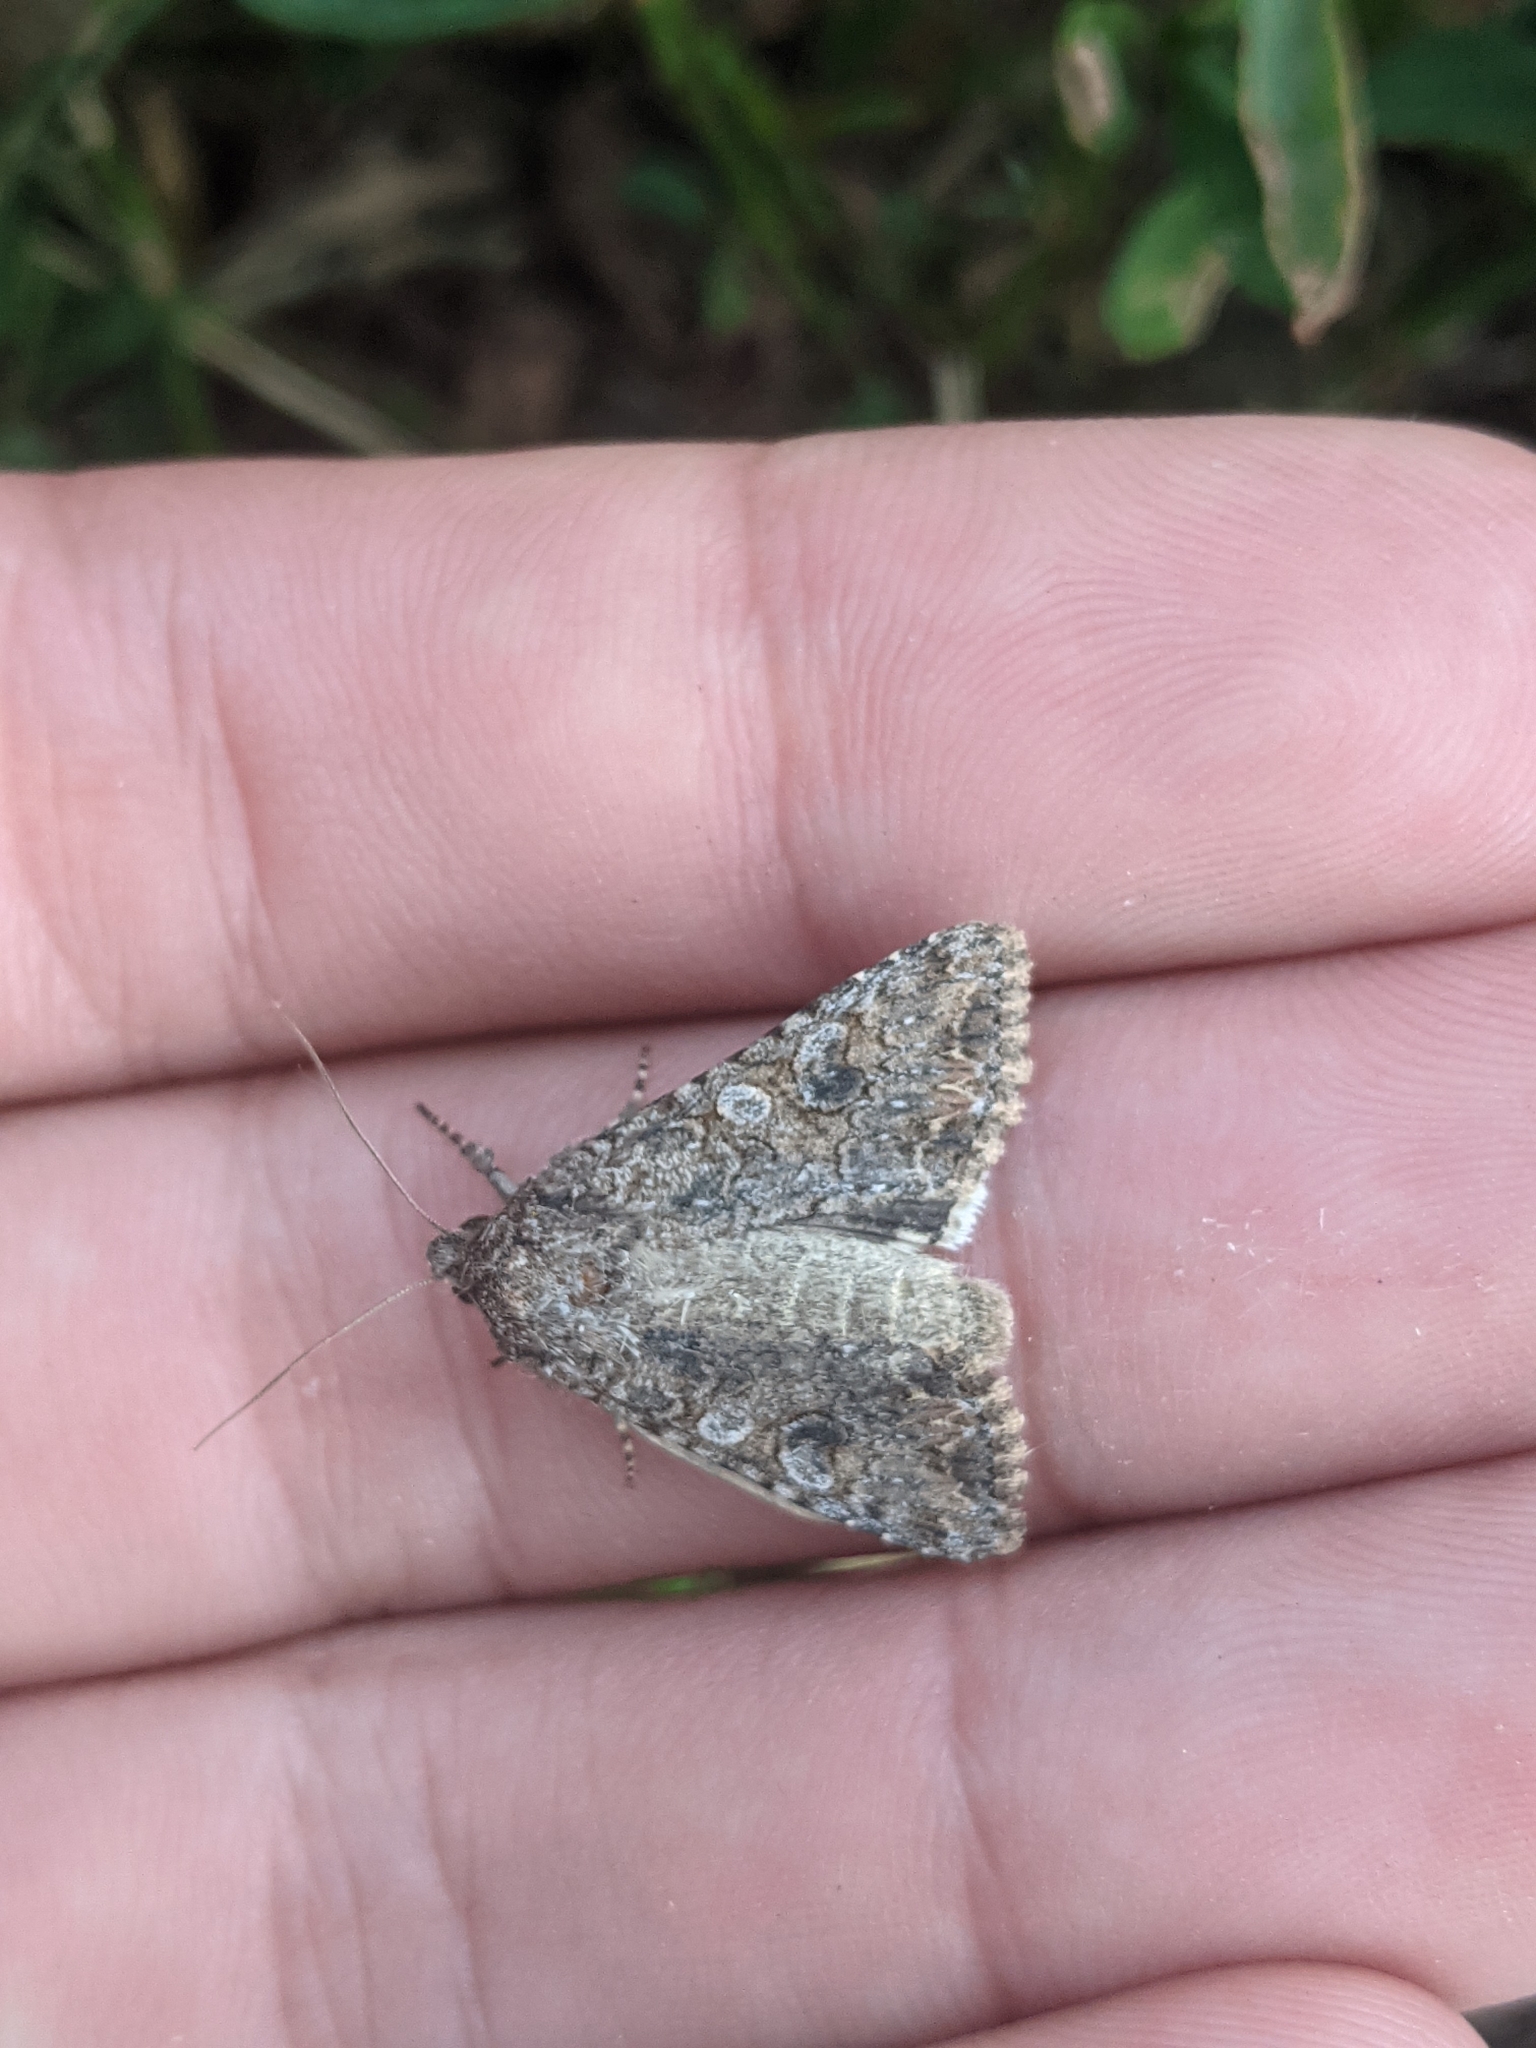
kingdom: Animalia
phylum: Arthropoda
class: Insecta
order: Lepidoptera
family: Noctuidae
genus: Anarta
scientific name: Anarta trifolii
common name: Clover cutworm moth
